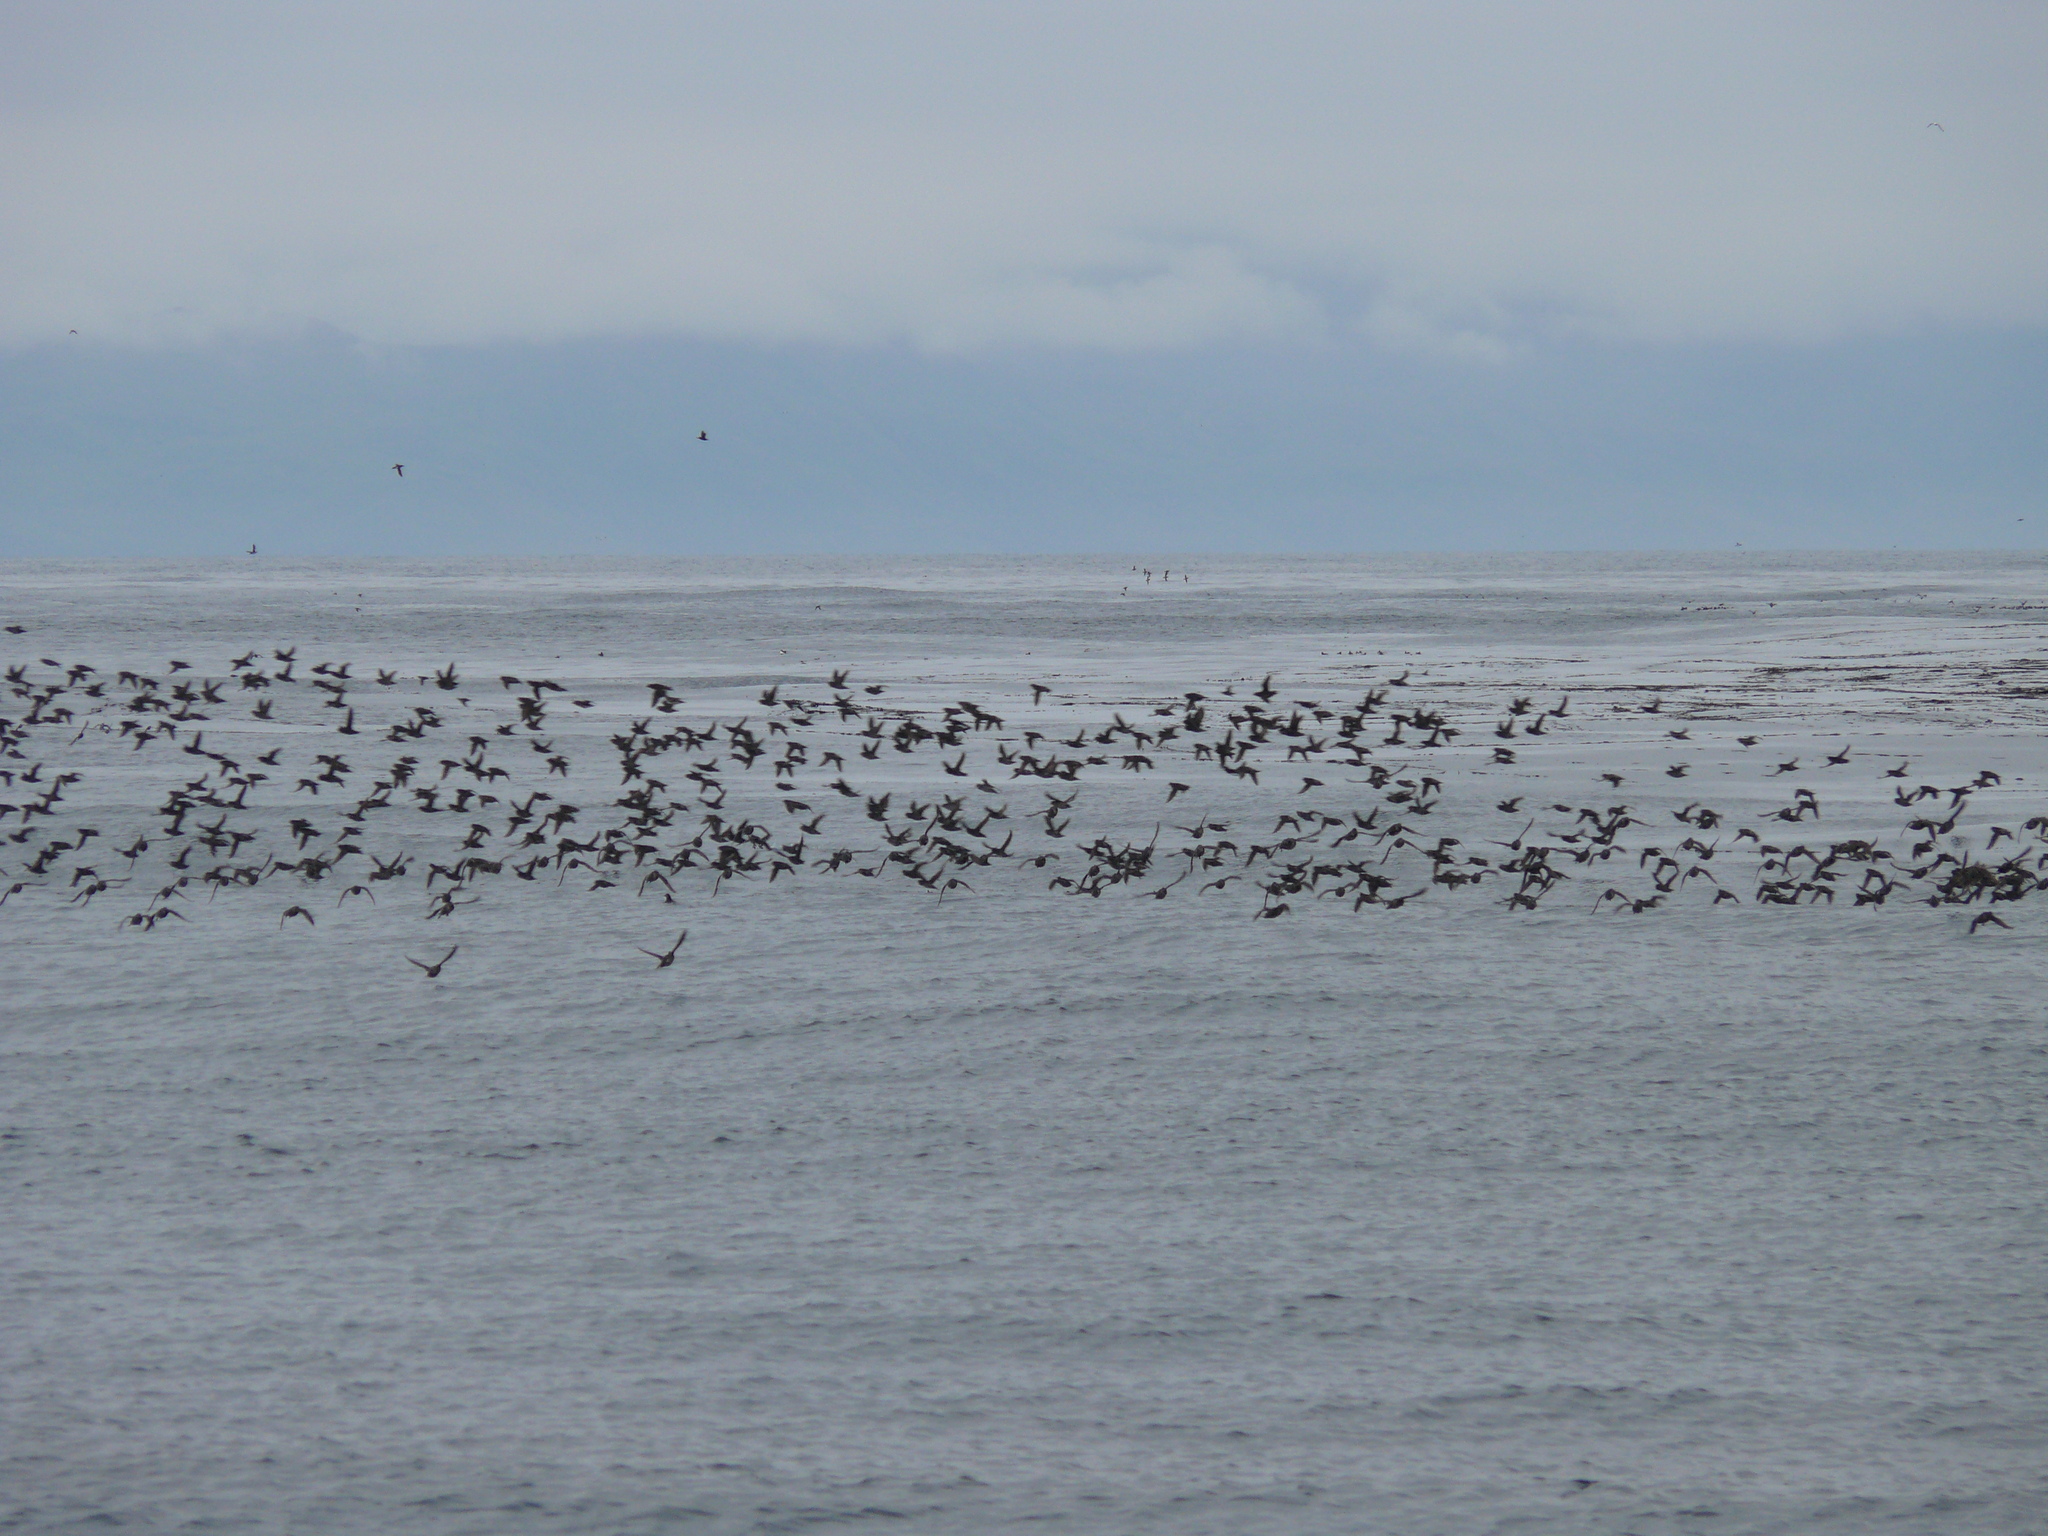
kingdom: Animalia
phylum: Chordata
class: Aves
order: Charadriiformes
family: Alcidae
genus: Aethia
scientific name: Aethia psittacula
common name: Parakeet auklet
